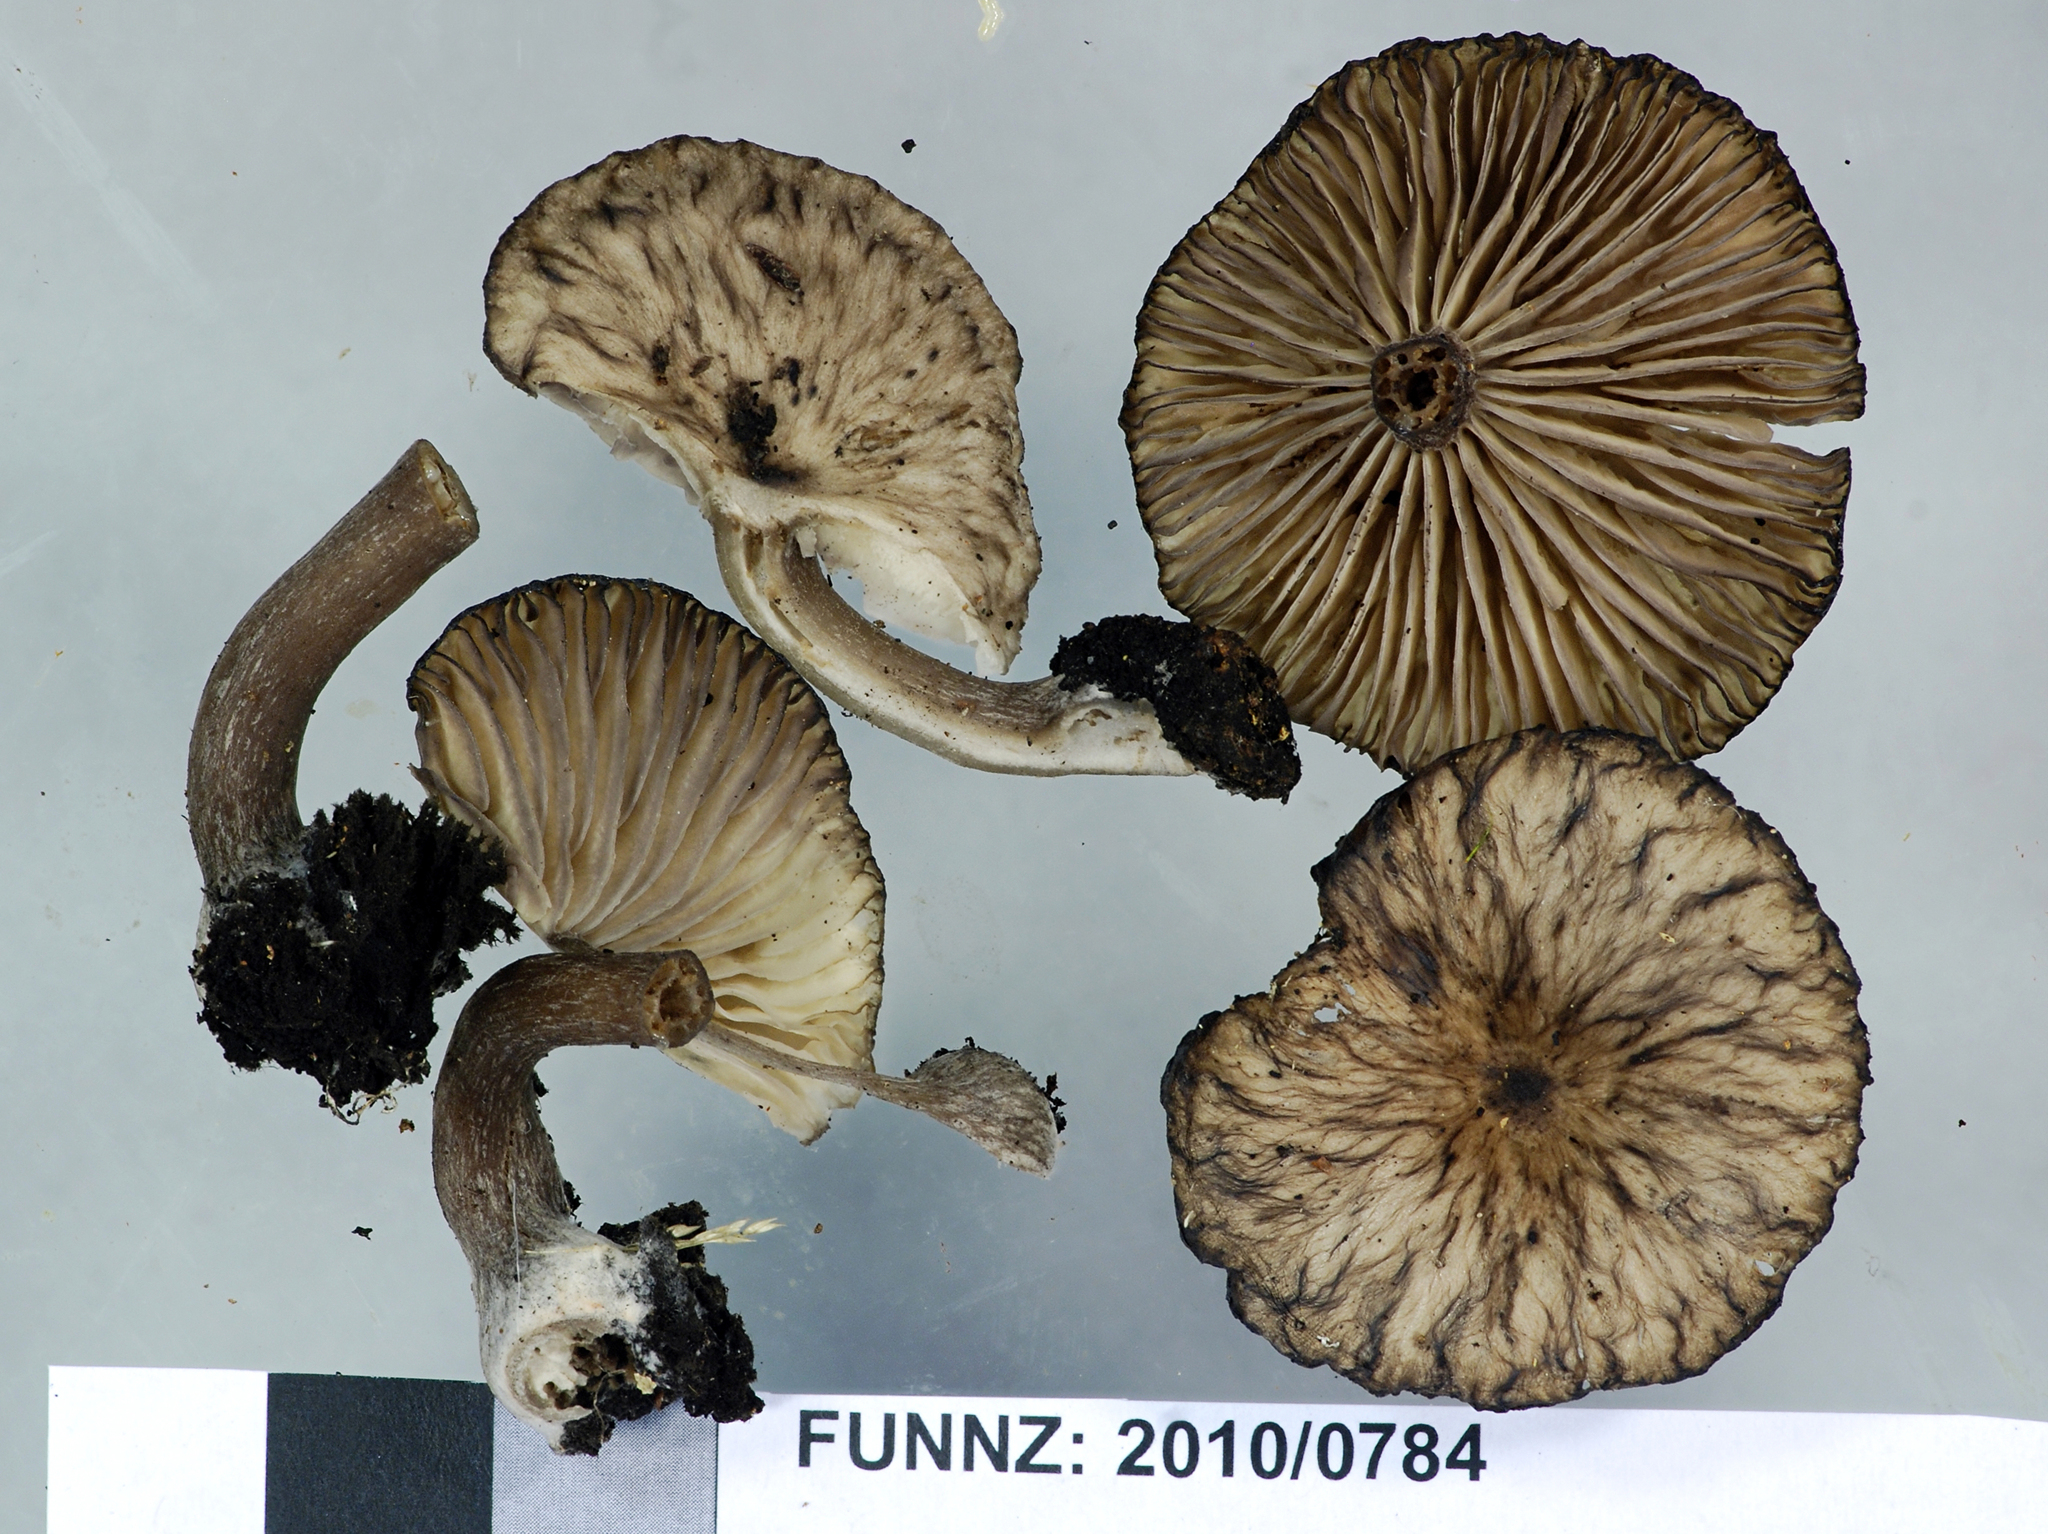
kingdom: Fungi
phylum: Basidiomycota
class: Agaricomycetes
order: Agaricales
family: Pseudoclitocybaceae
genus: Pseudoclitocybe
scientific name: Pseudoclitocybe foetida
